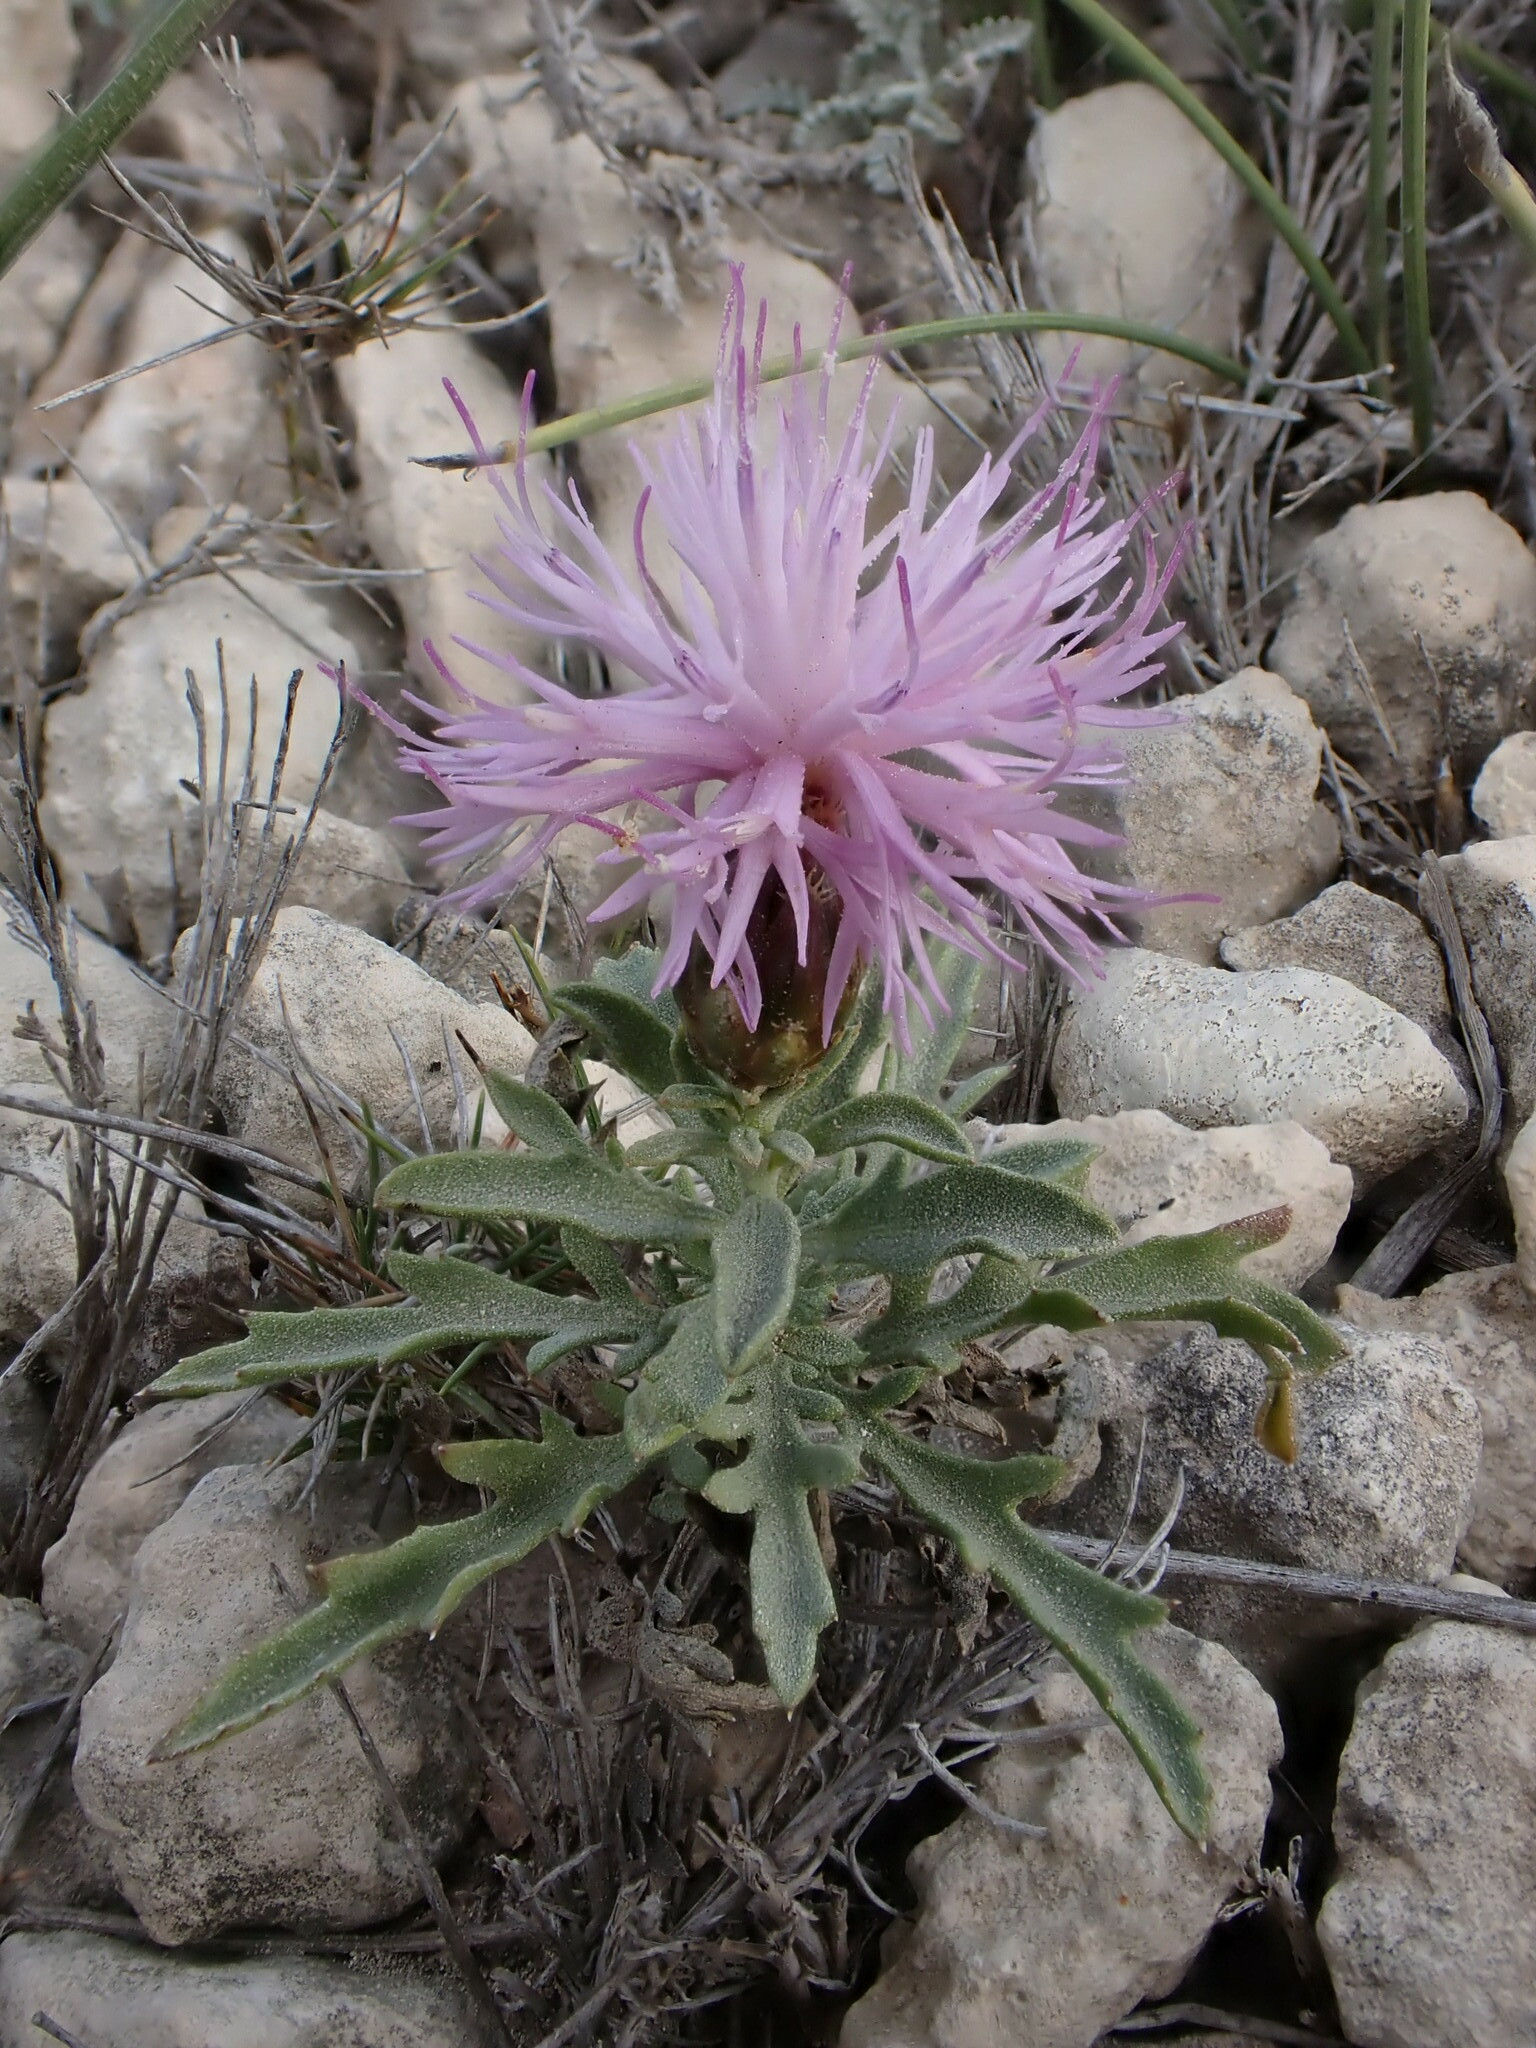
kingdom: Plantae
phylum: Tracheophyta
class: Magnoliopsida
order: Asterales
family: Asteraceae
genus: Cheirolophus
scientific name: Cheirolophus intybaceus
